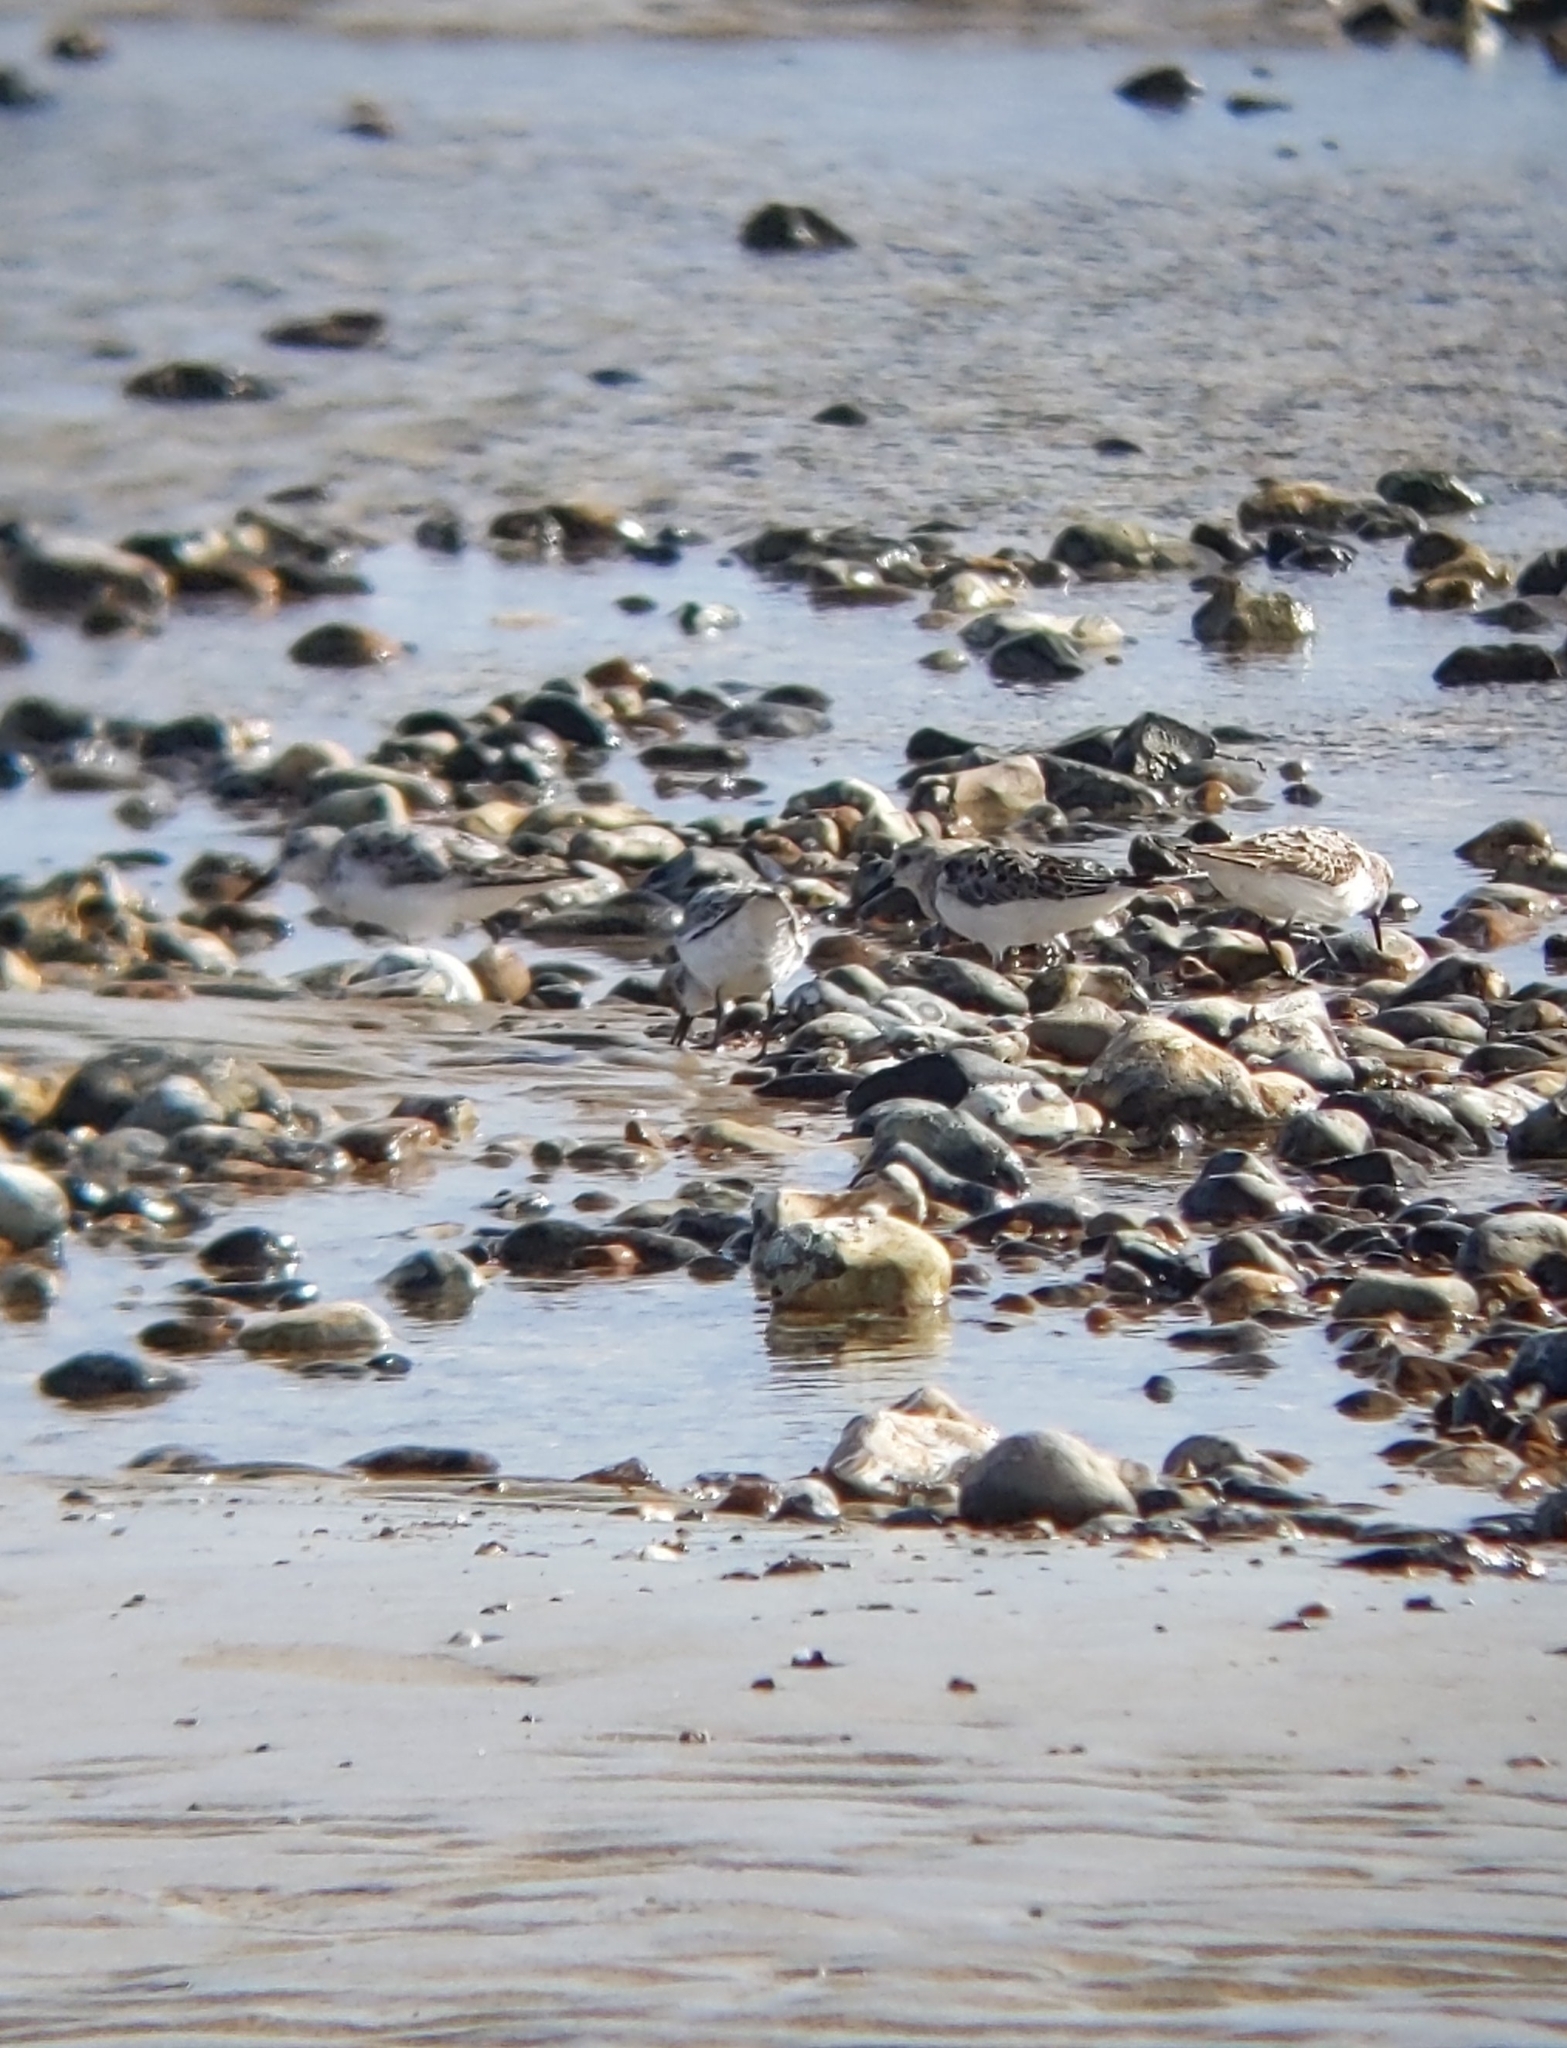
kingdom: Animalia
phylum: Chordata
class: Aves
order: Charadriiformes
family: Scolopacidae
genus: Calidris
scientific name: Calidris alba
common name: Sanderling
